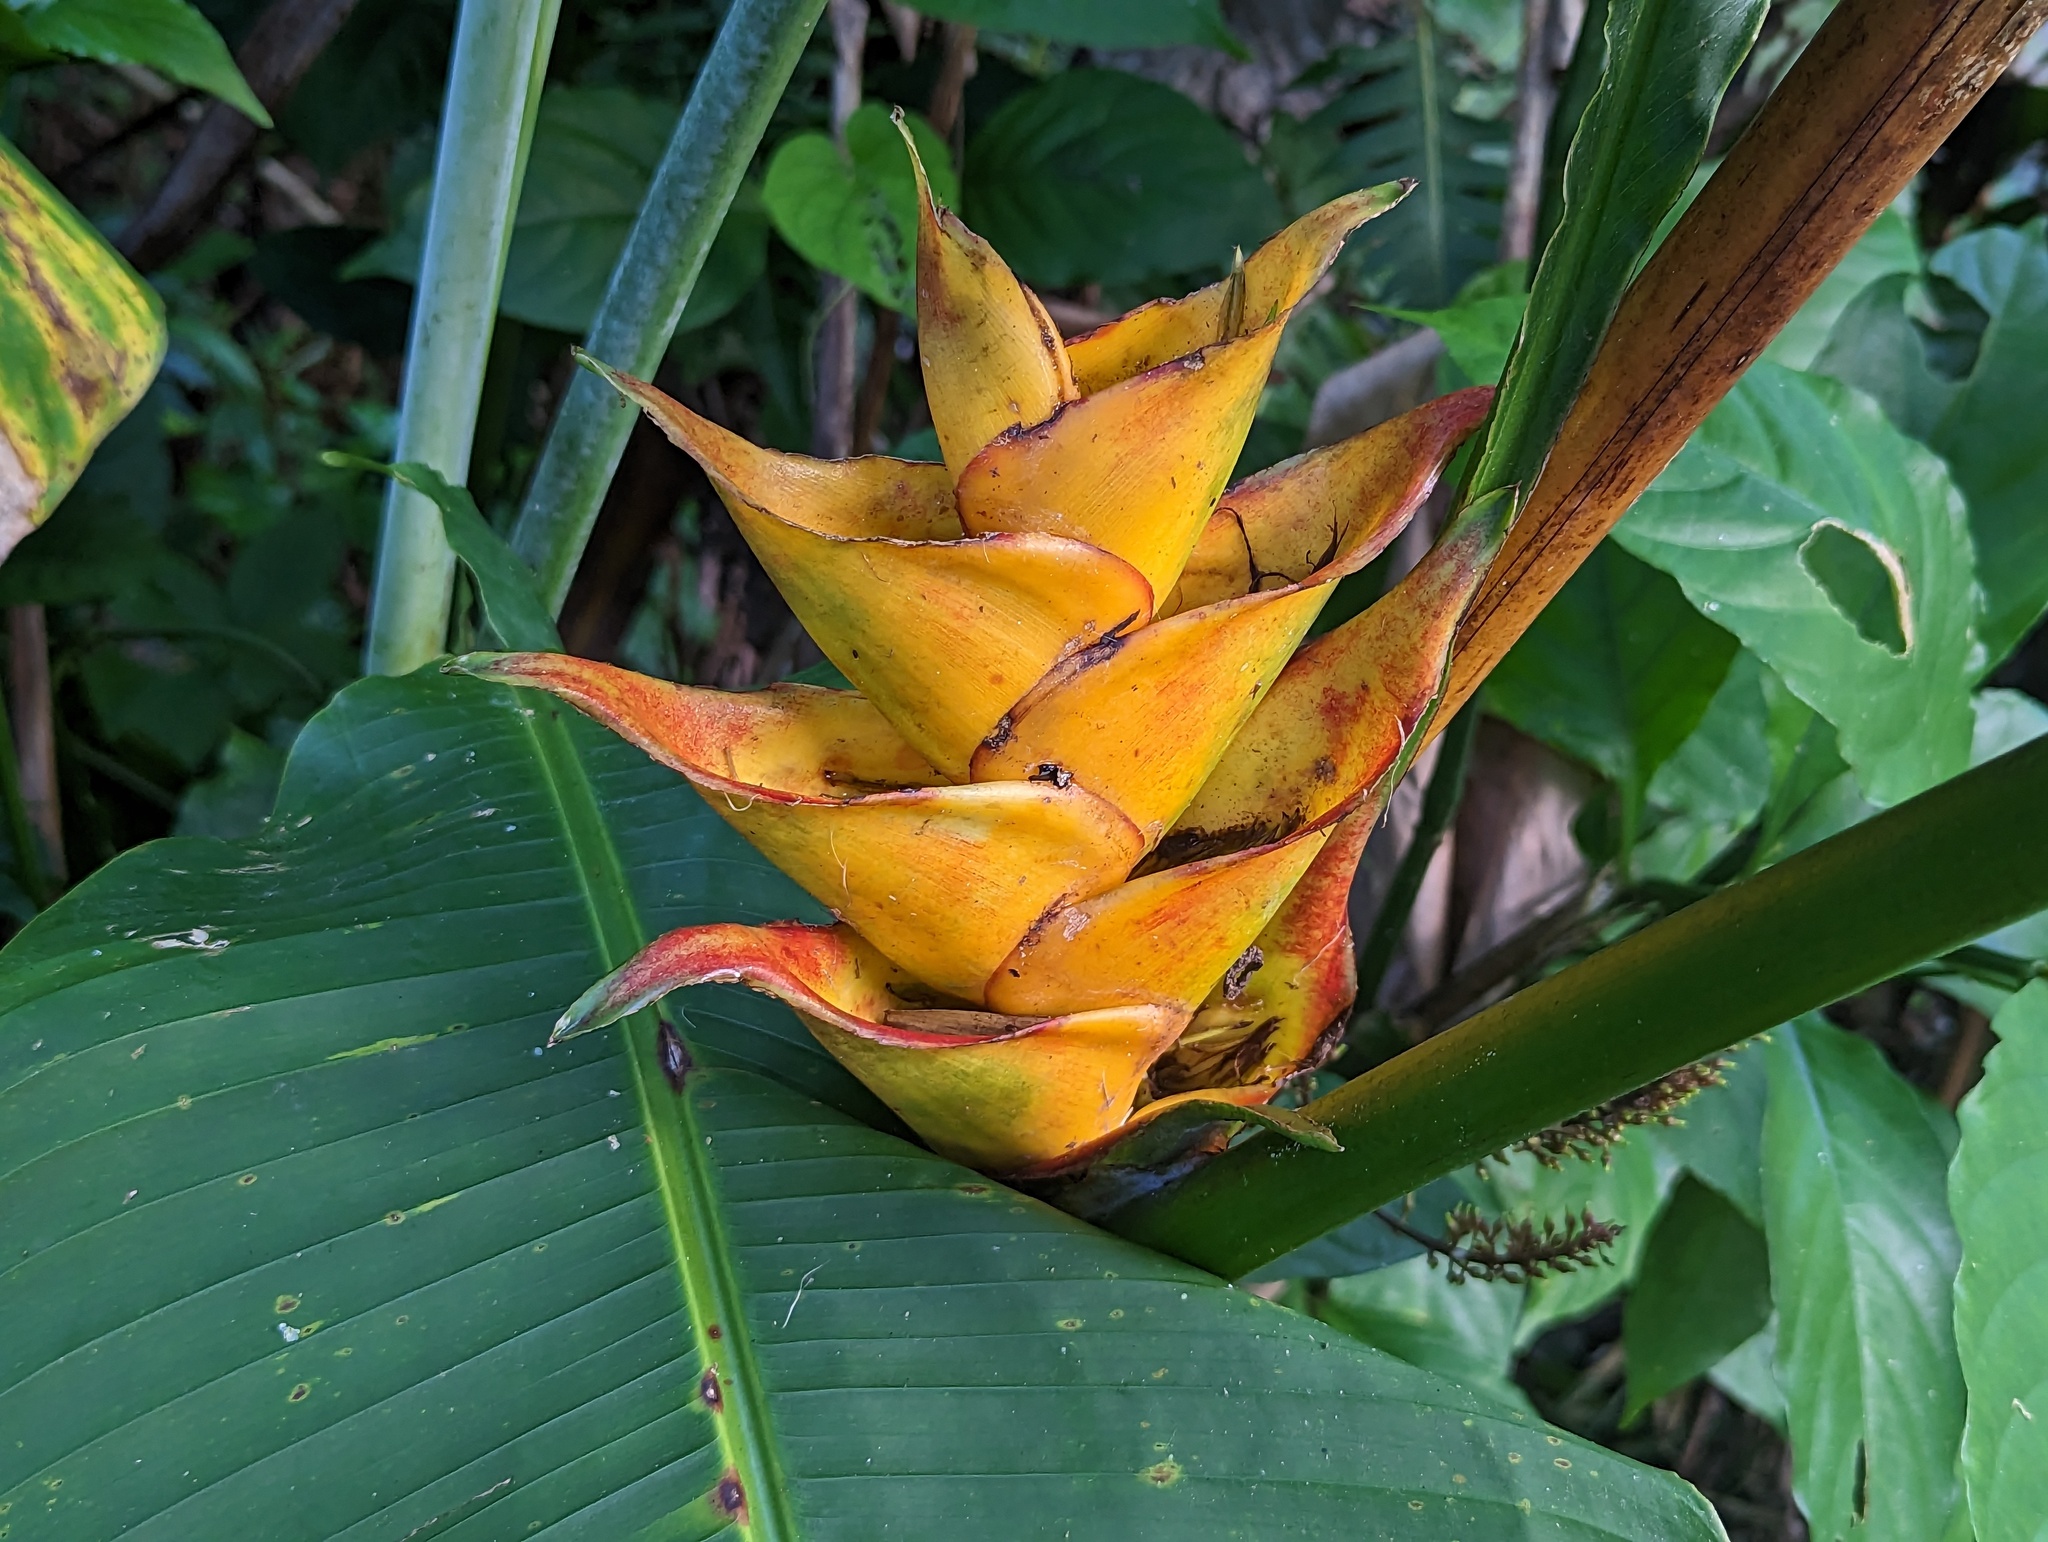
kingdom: Plantae
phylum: Tracheophyta
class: Liliopsida
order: Zingiberales
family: Heliconiaceae
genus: Heliconia
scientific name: Heliconia caribaea
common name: Wild plantain
